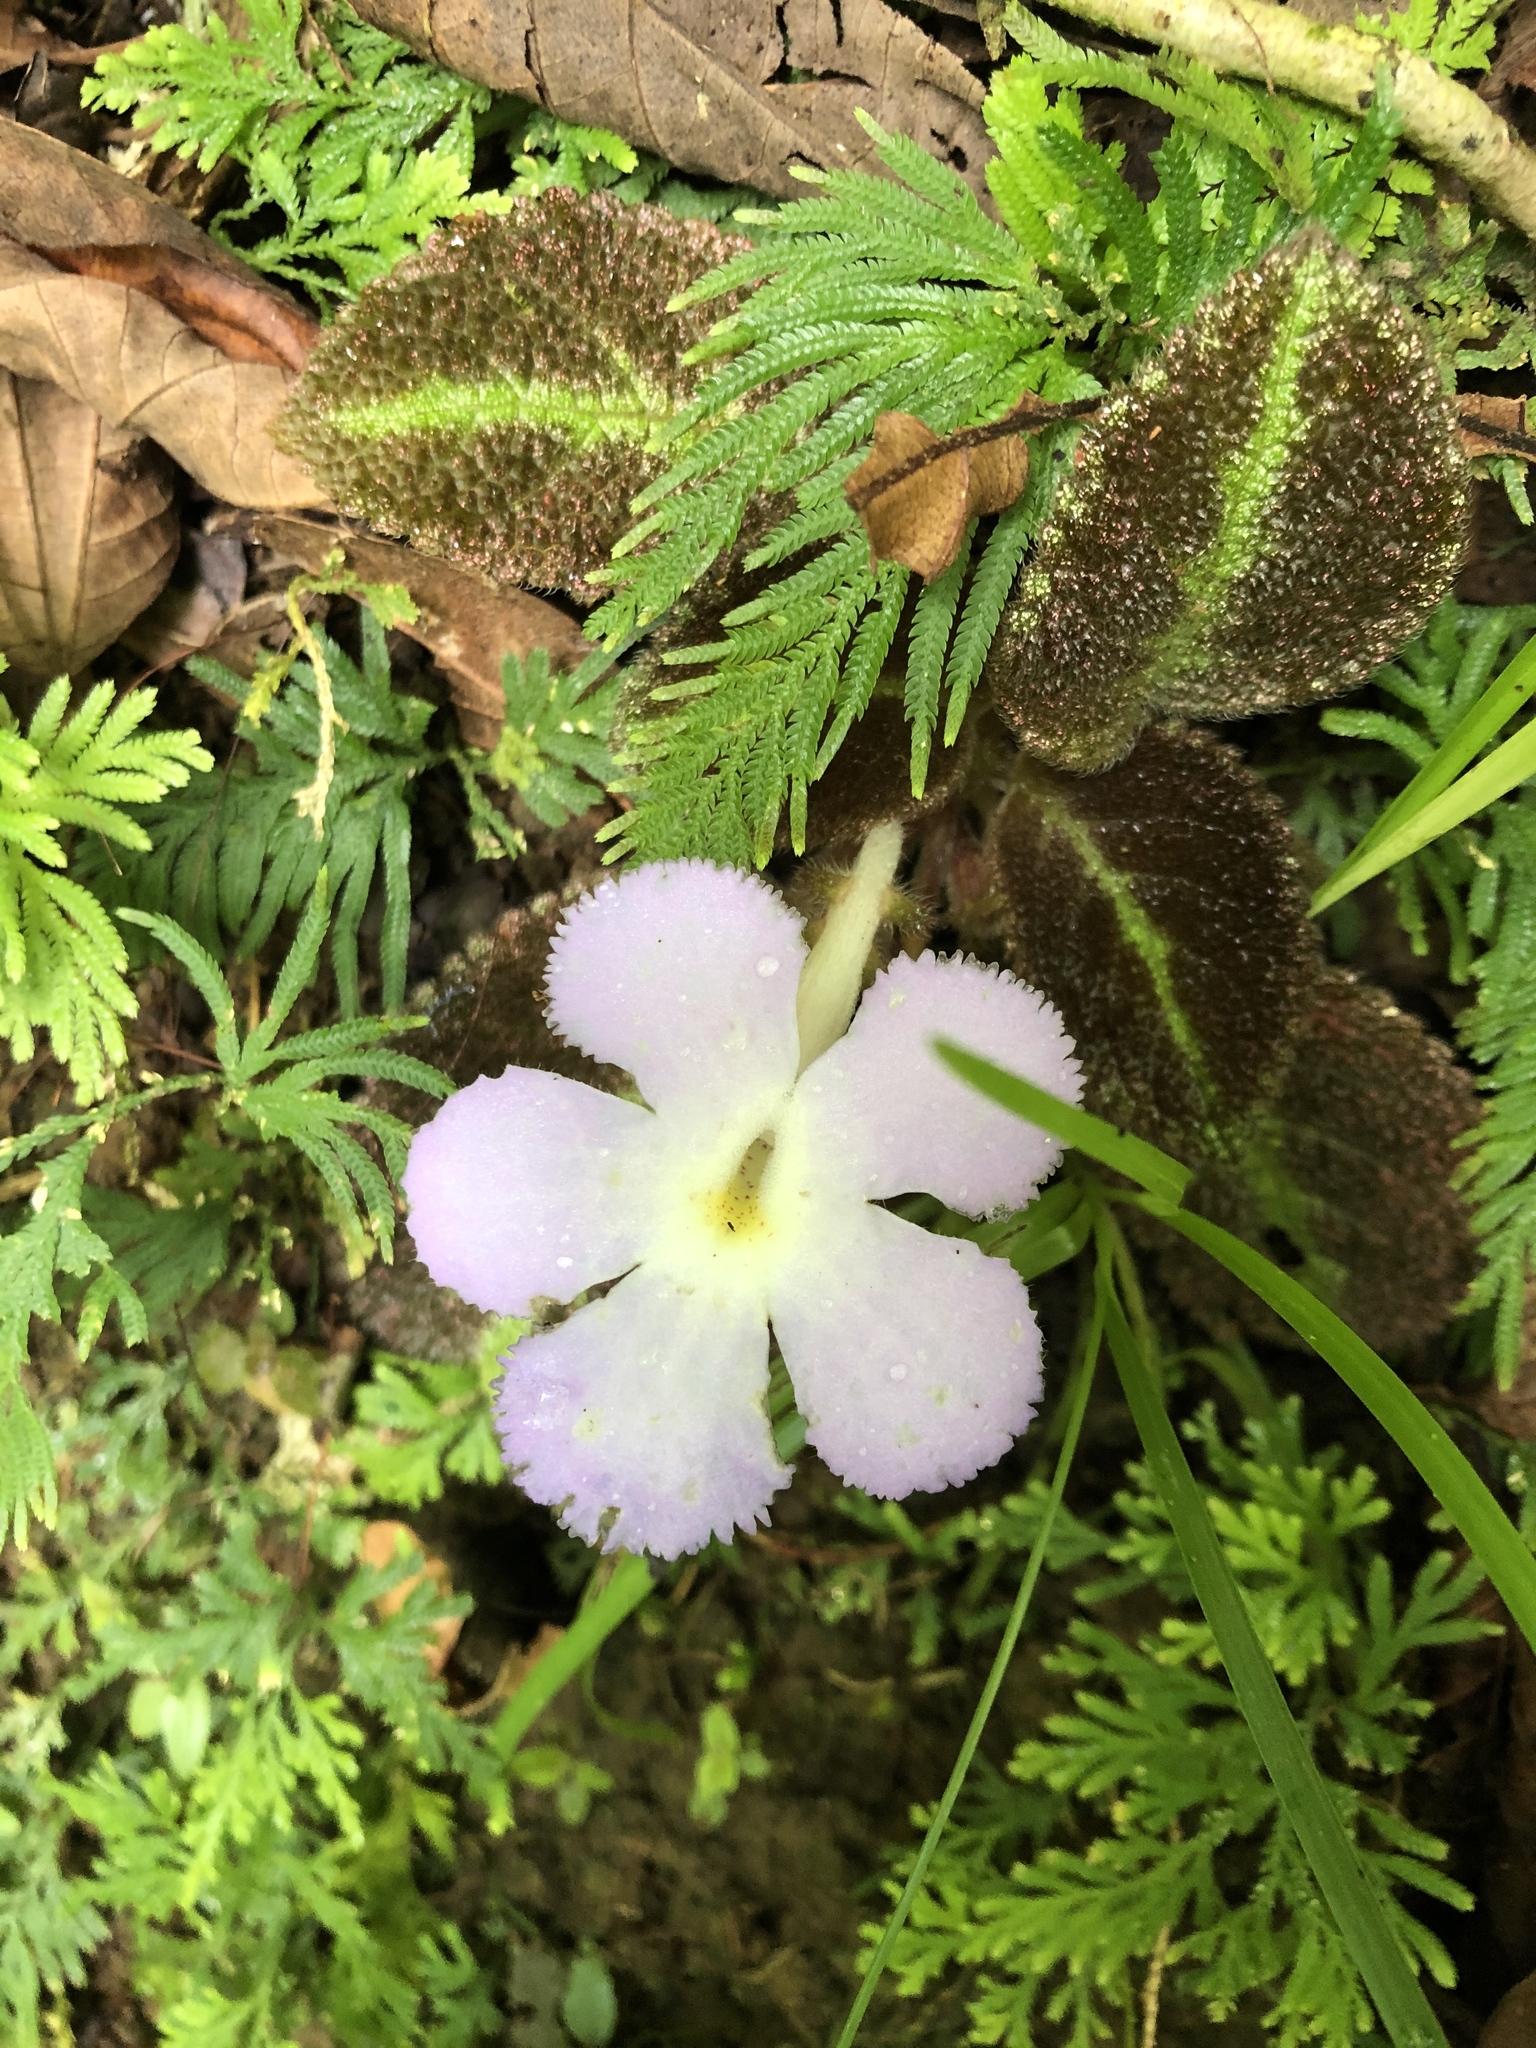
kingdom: Plantae
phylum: Tracheophyta
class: Magnoliopsida
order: Lamiales
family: Gesneriaceae
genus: Episcia
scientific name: Episcia lilacina
